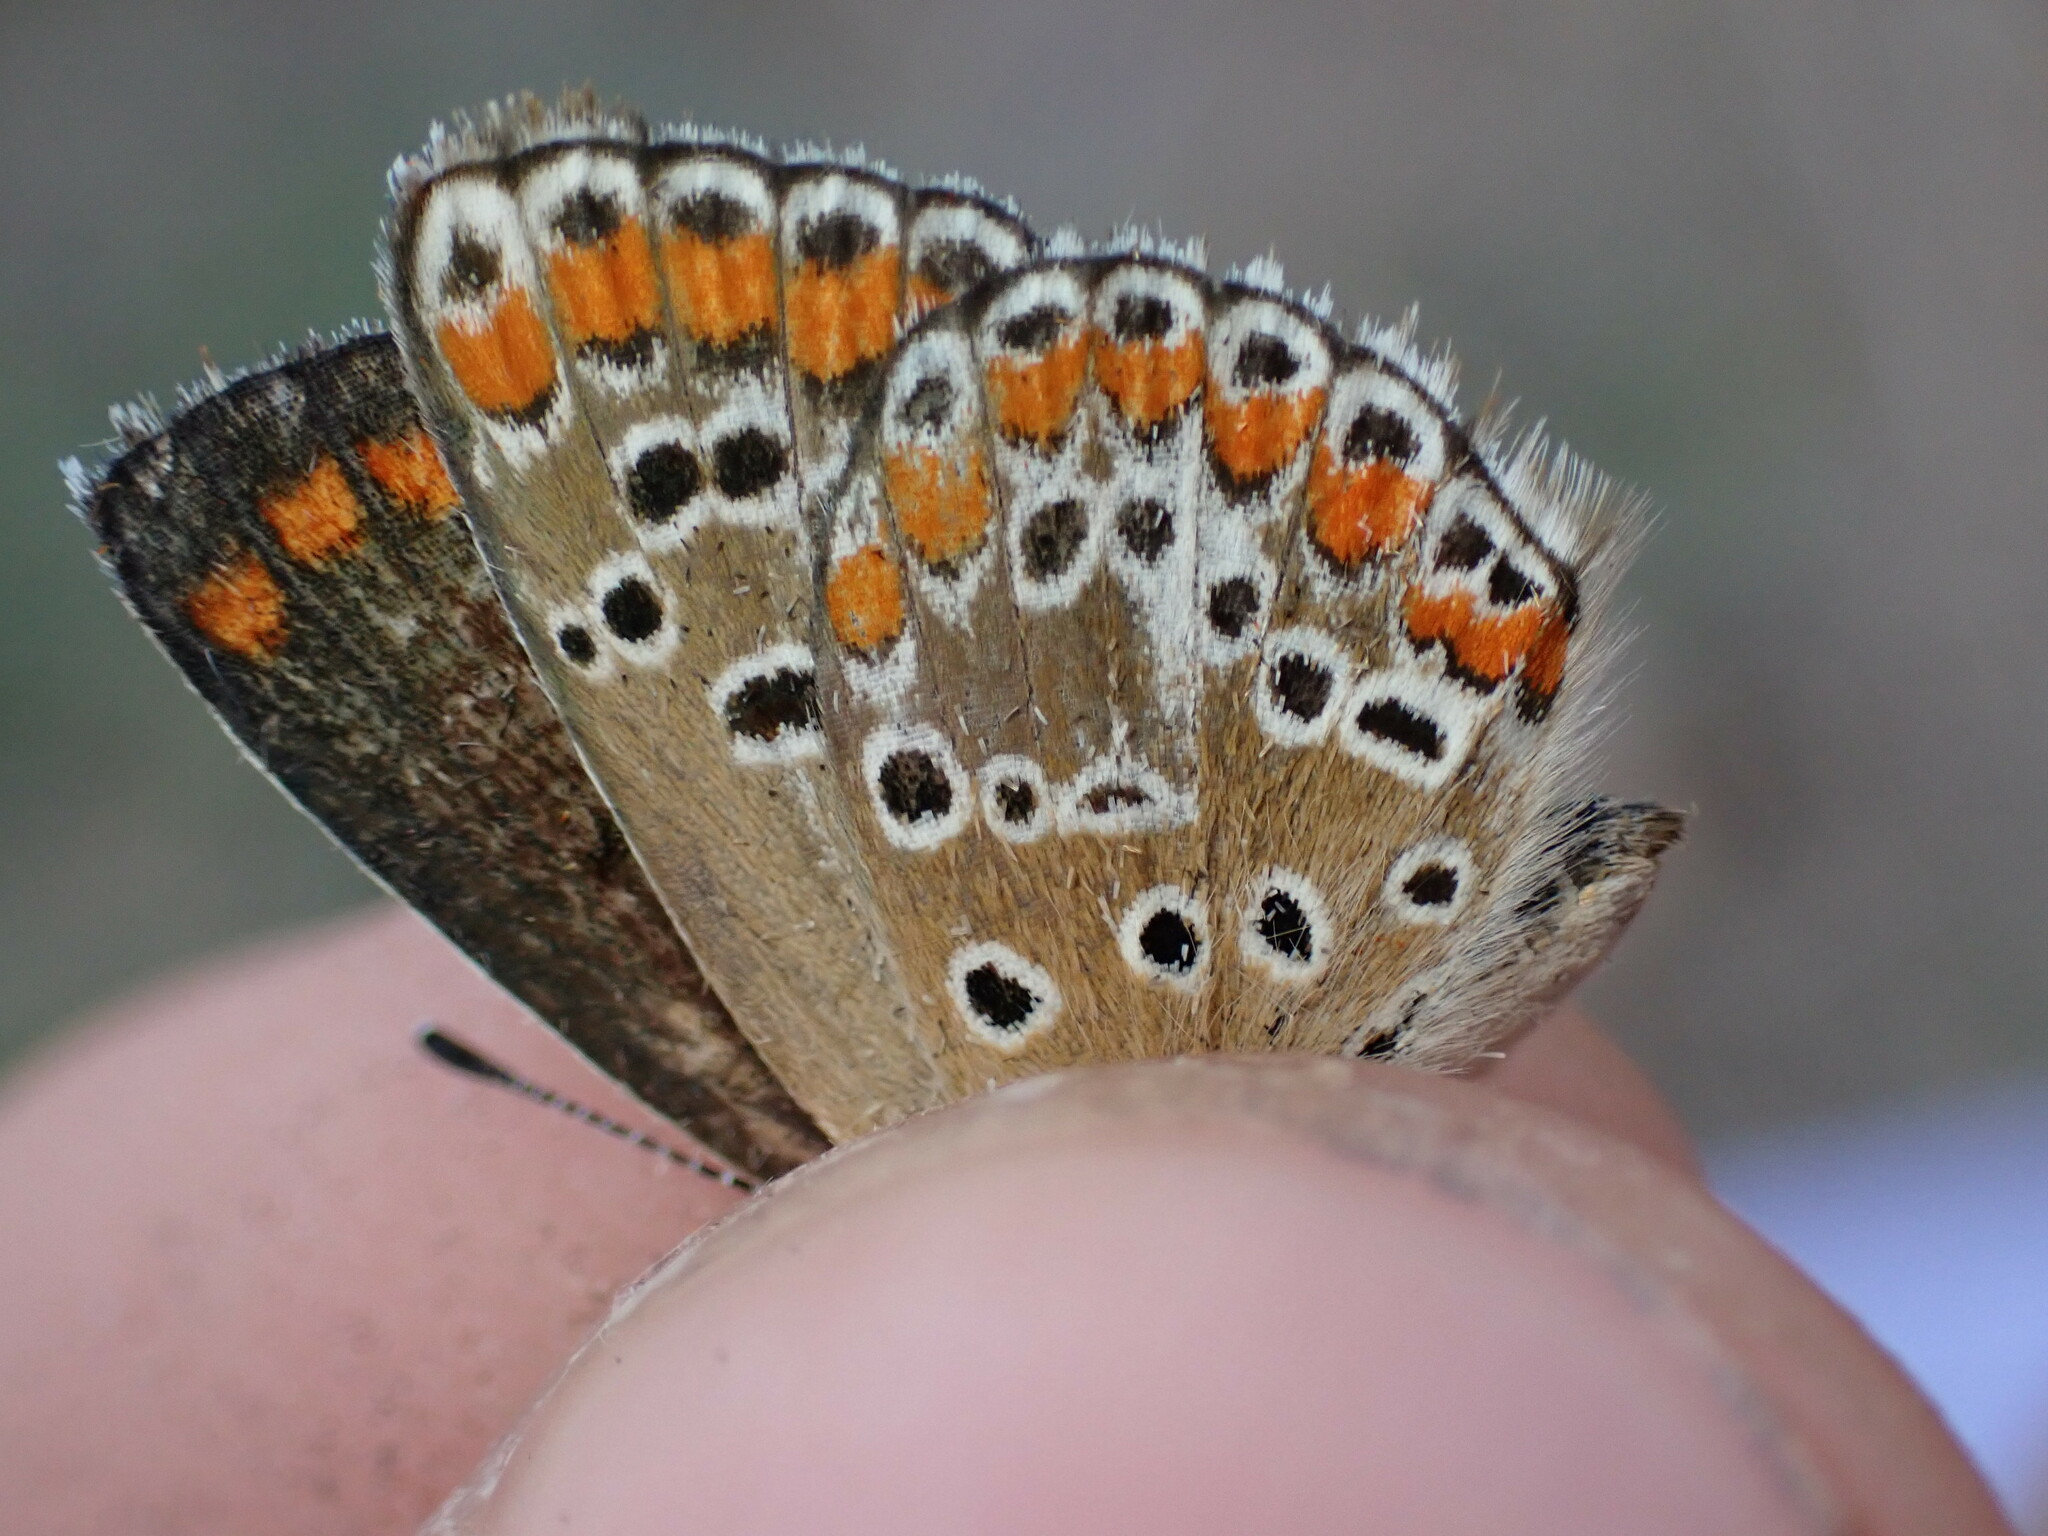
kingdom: Animalia
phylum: Arthropoda
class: Insecta
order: Lepidoptera
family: Lycaenidae
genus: Aricia
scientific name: Aricia agestis
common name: Brown argus
